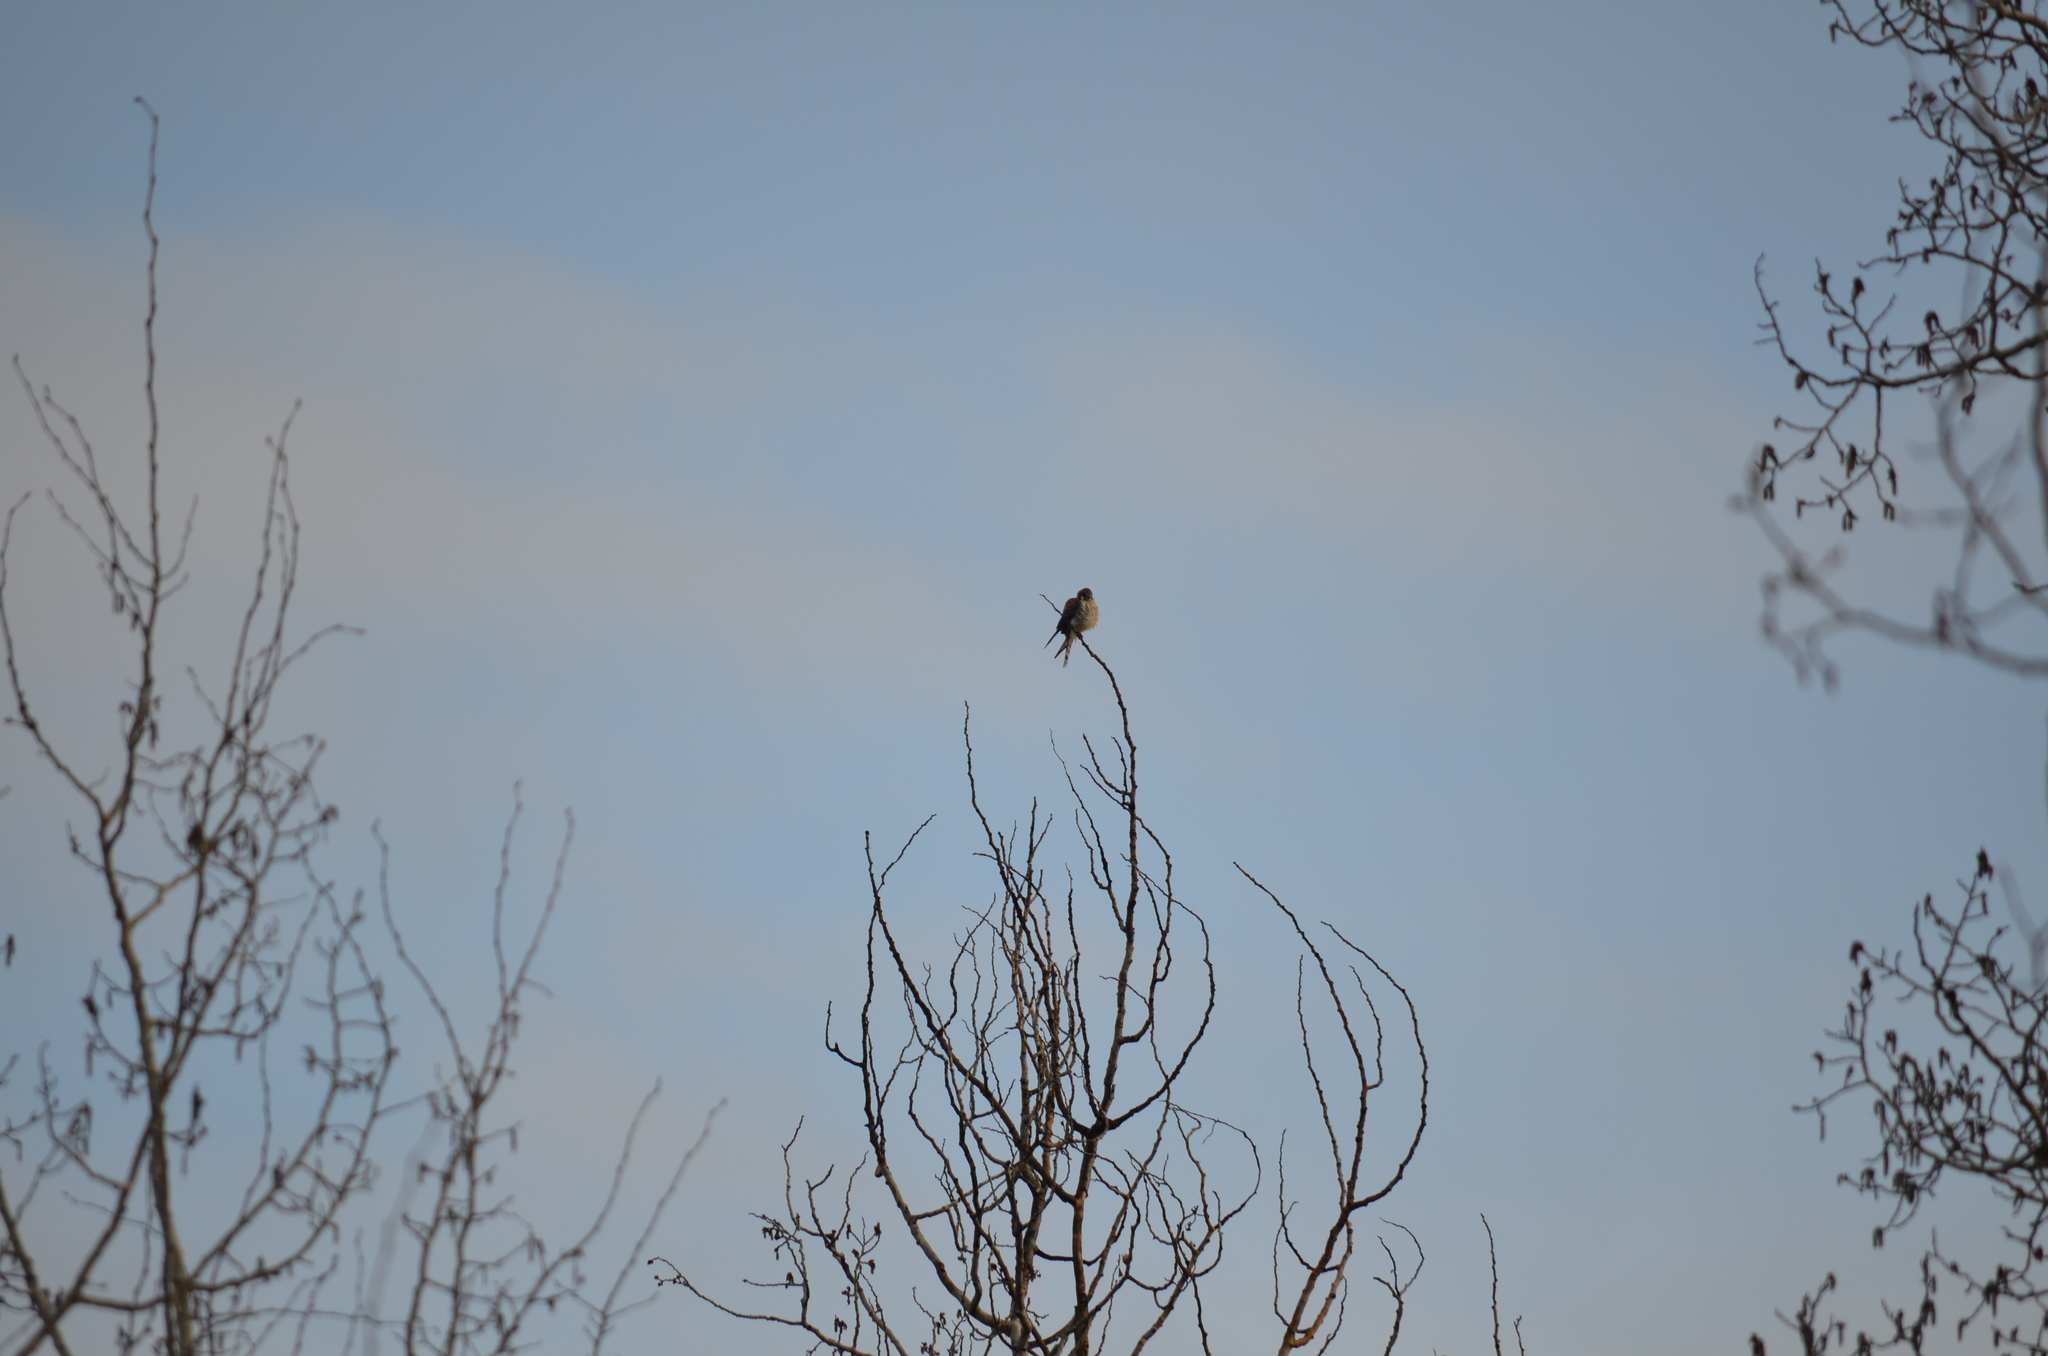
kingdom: Animalia
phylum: Chordata
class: Aves
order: Falconiformes
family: Falconidae
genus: Falco
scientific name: Falco sparverius
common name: American kestrel
